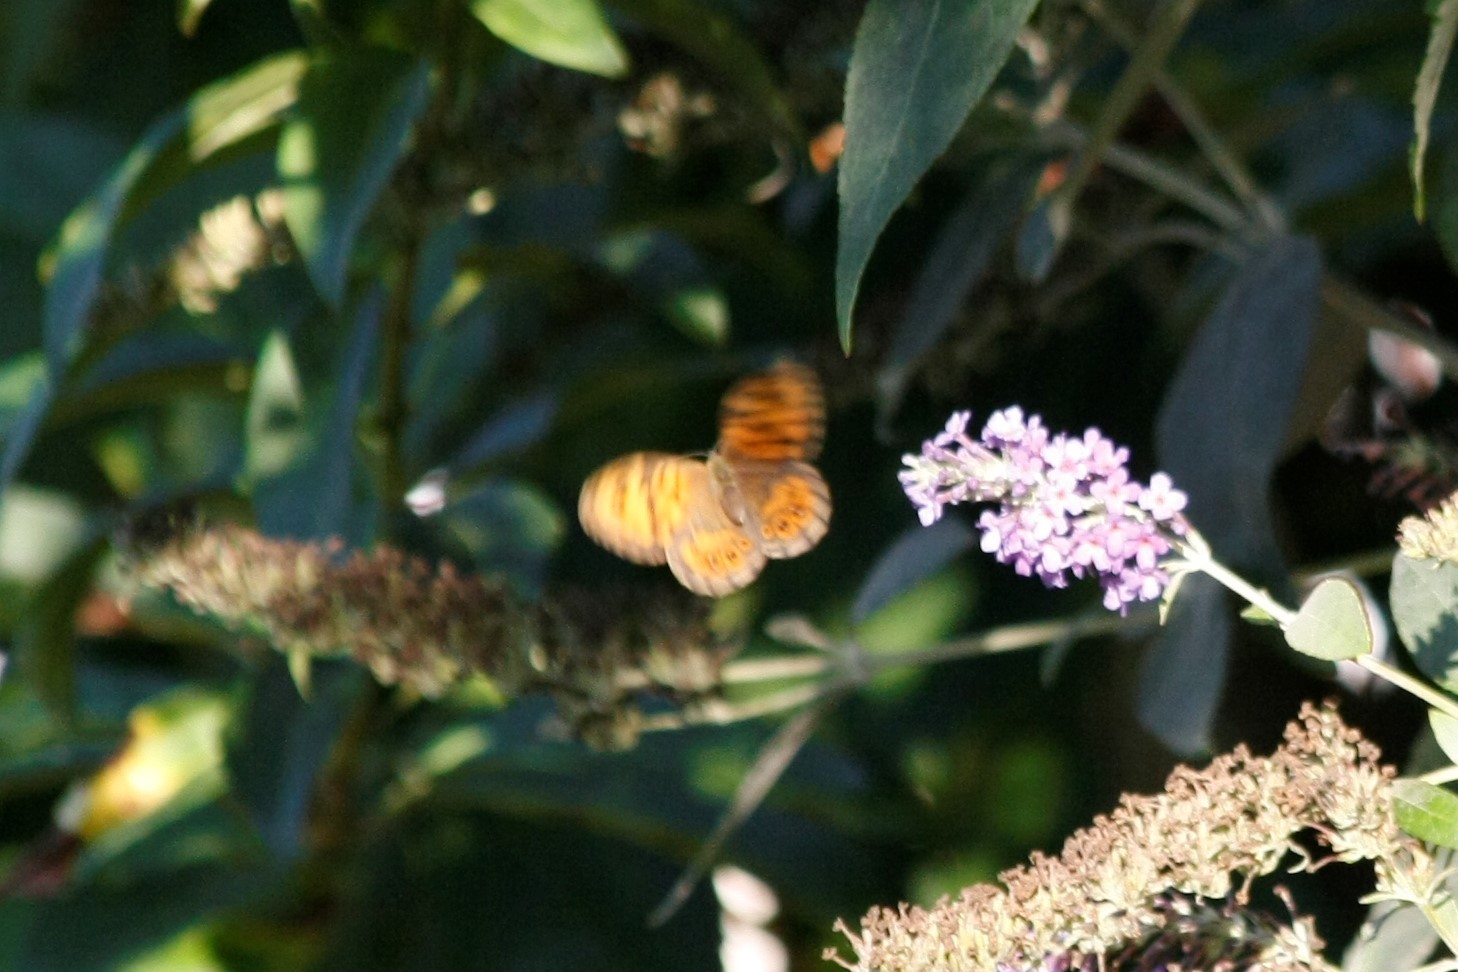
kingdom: Animalia
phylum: Arthropoda
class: Insecta
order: Lepidoptera
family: Nymphalidae
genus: Pararge
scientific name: Pararge Lasiommata megera
